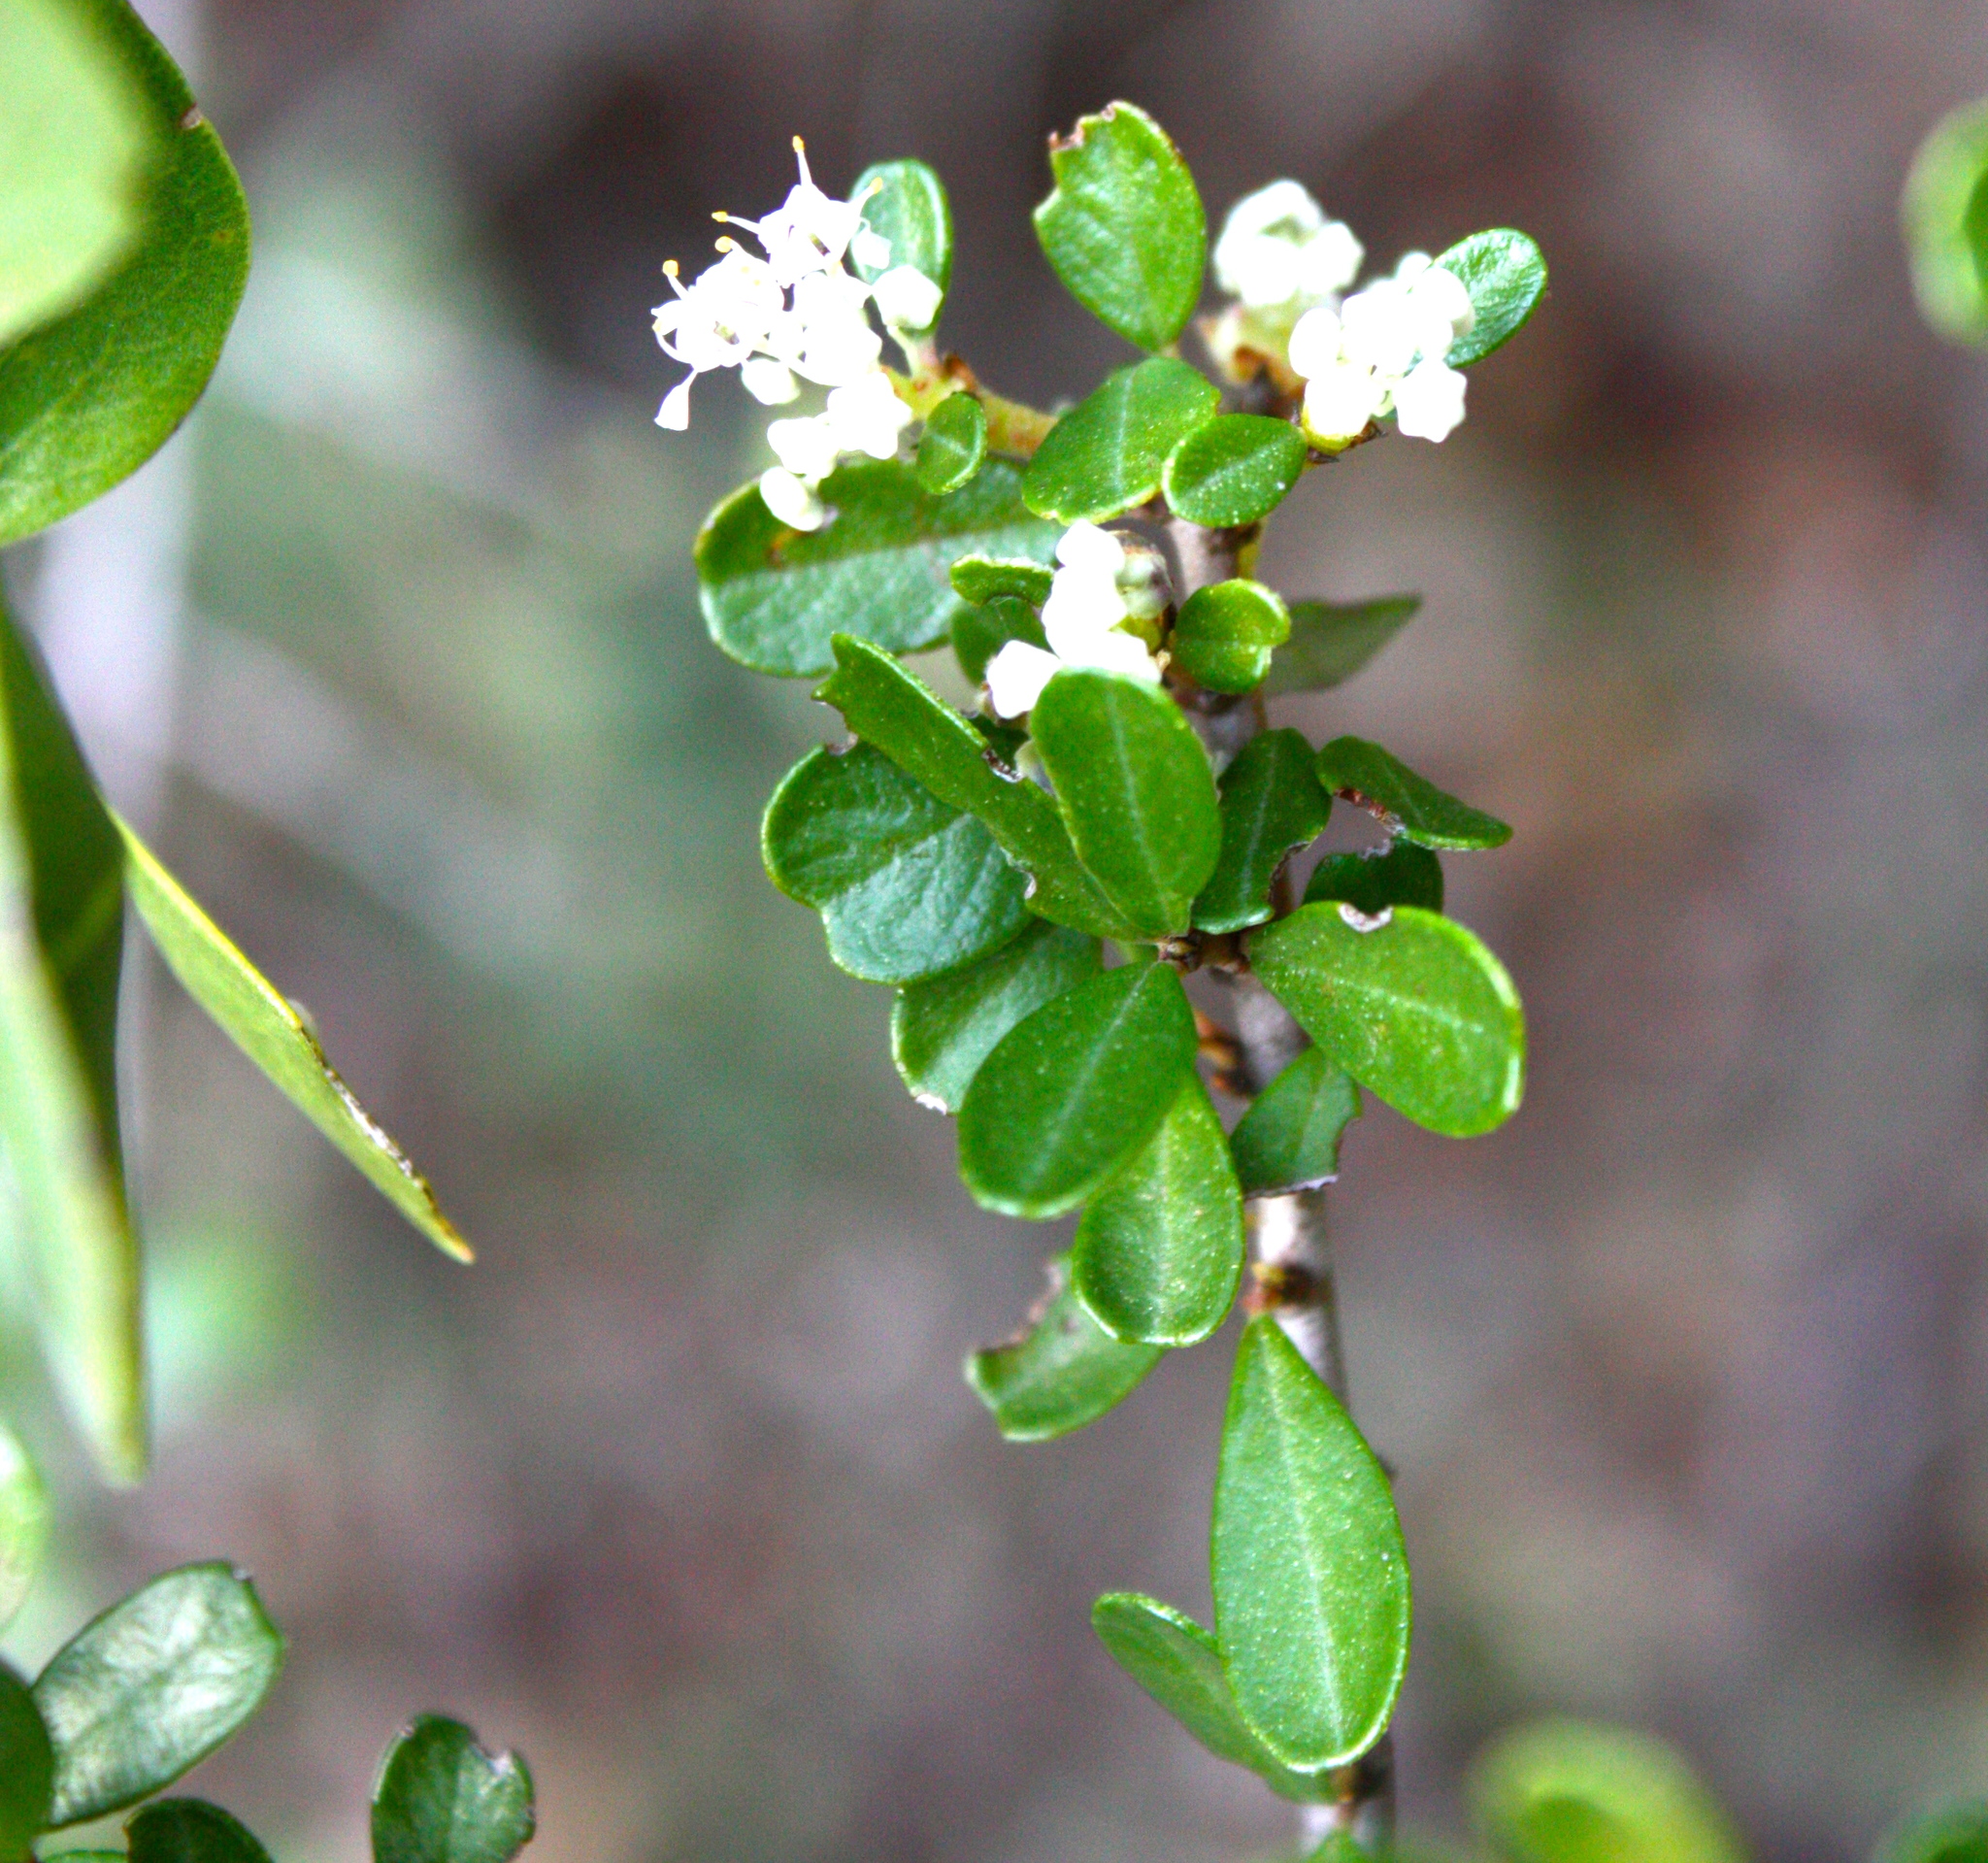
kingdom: Plantae
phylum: Tracheophyta
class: Magnoliopsida
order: Rosales
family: Rhamnaceae
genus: Ceanothus
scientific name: Ceanothus cuneatus
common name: Cuneate ceanothus
